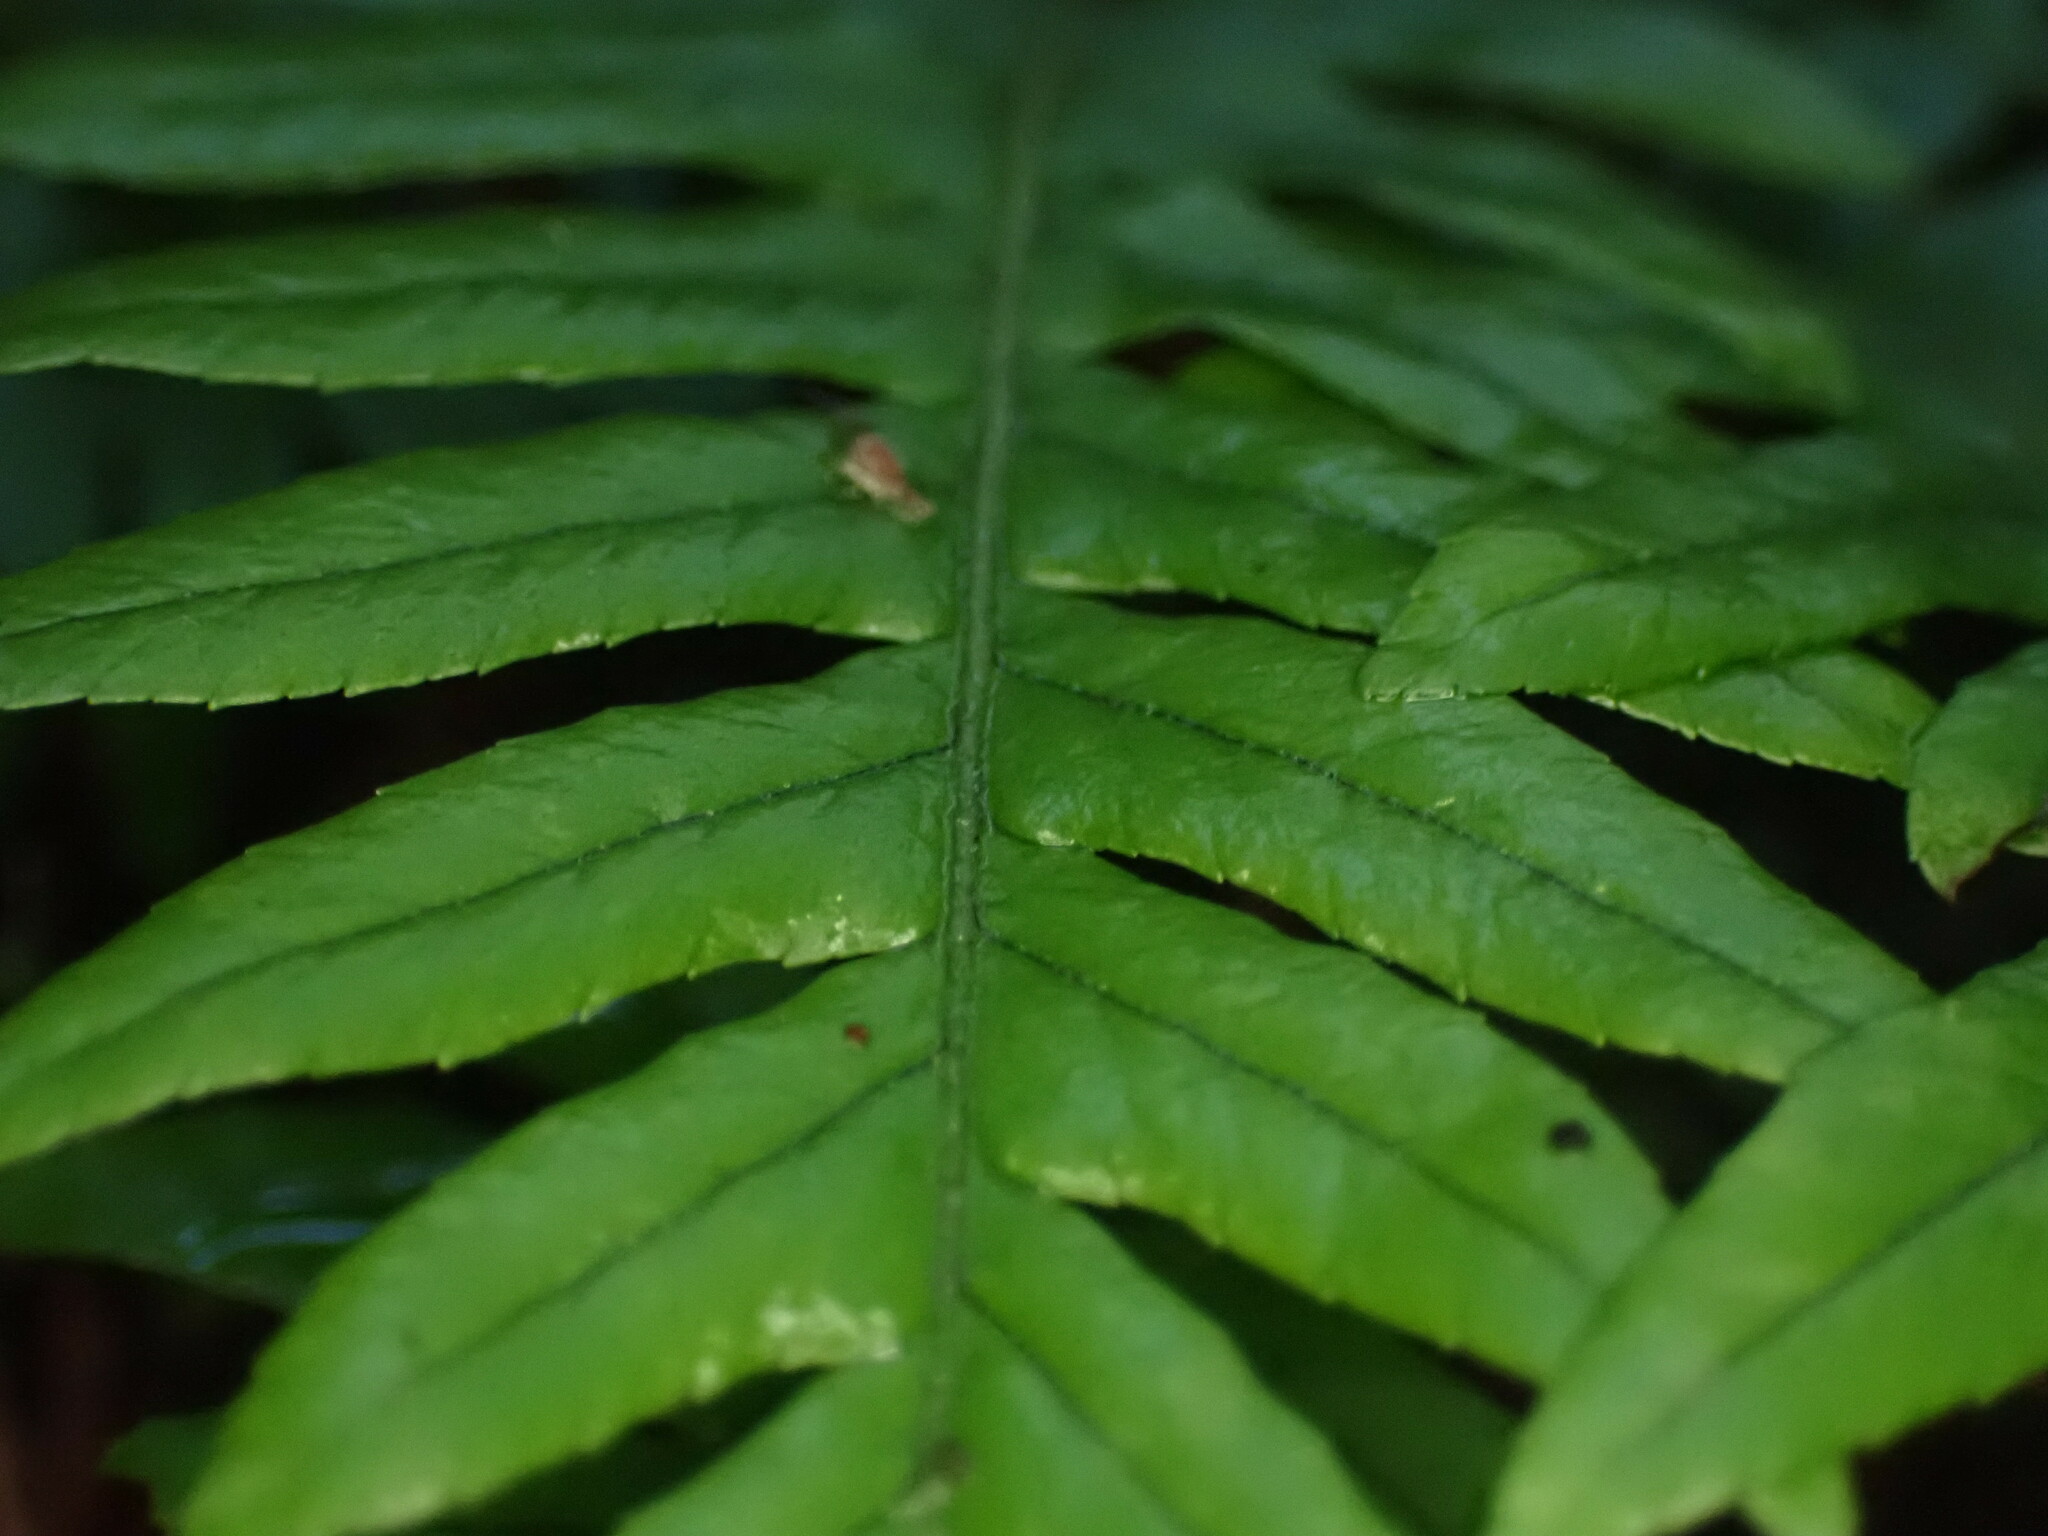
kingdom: Plantae
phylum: Tracheophyta
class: Polypodiopsida
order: Polypodiales
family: Polypodiaceae
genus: Polypodium
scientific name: Polypodium glycyrrhiza
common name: Licorice fern
